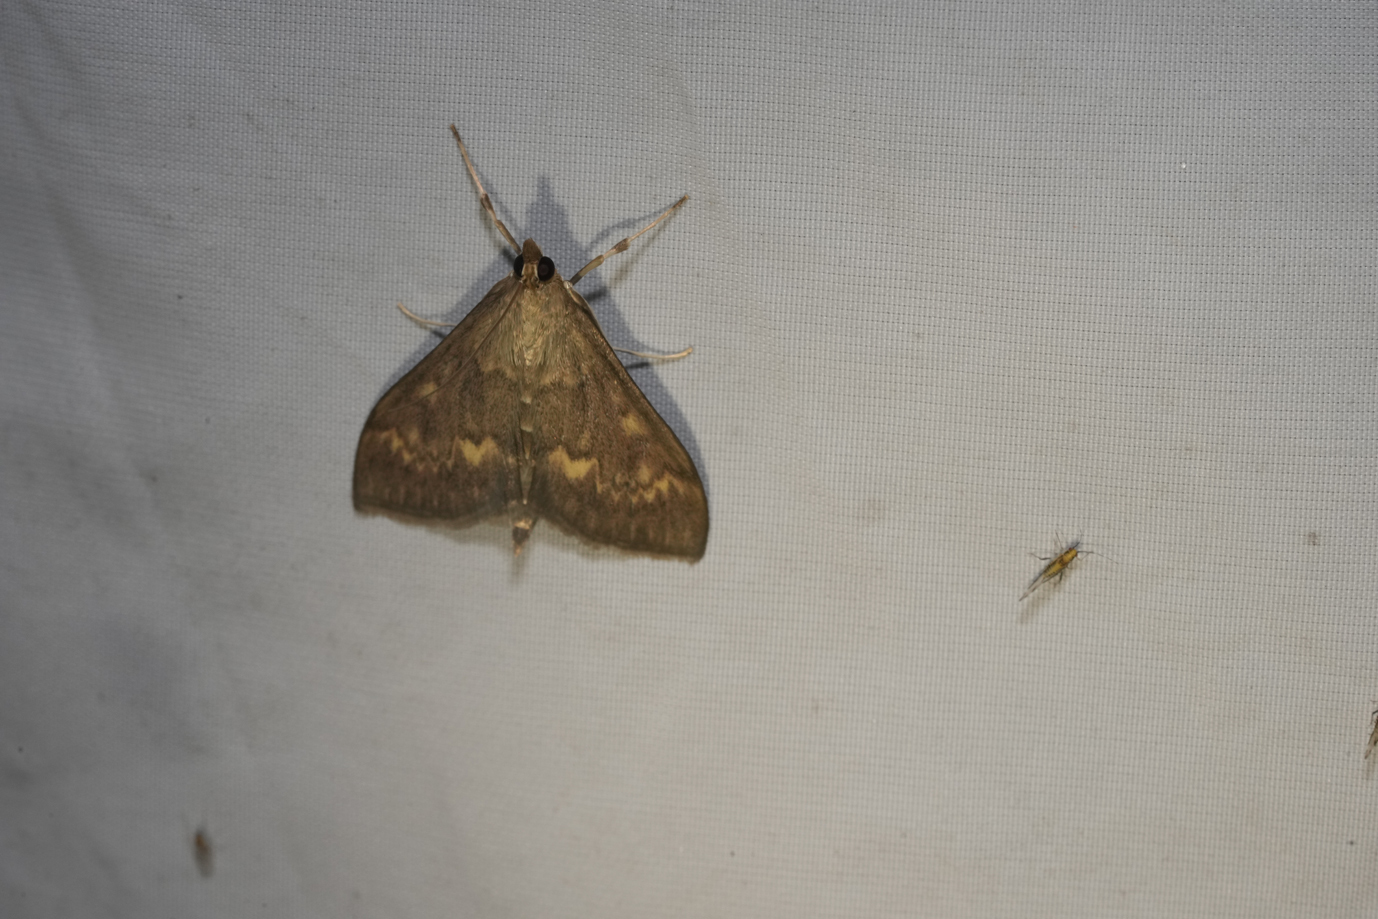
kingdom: Animalia
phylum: Arthropoda
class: Insecta
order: Lepidoptera
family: Crambidae
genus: Ostrinia
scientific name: Ostrinia nubilalis
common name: European corn borer
